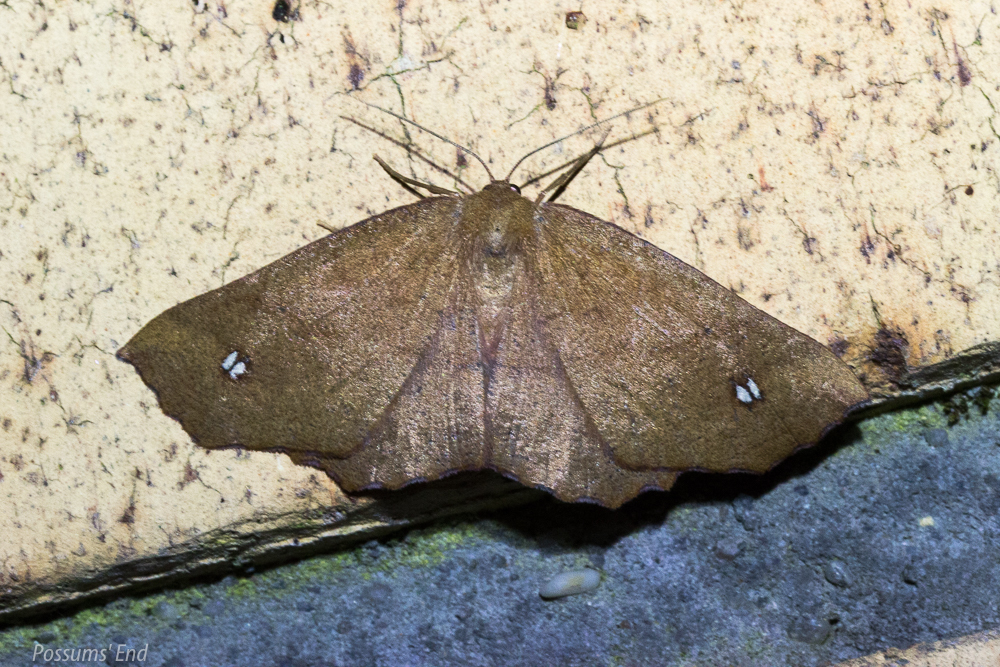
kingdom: Animalia
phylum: Arthropoda
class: Insecta
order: Lepidoptera
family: Geometridae
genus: Xyridacma
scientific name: Xyridacma ustaria
